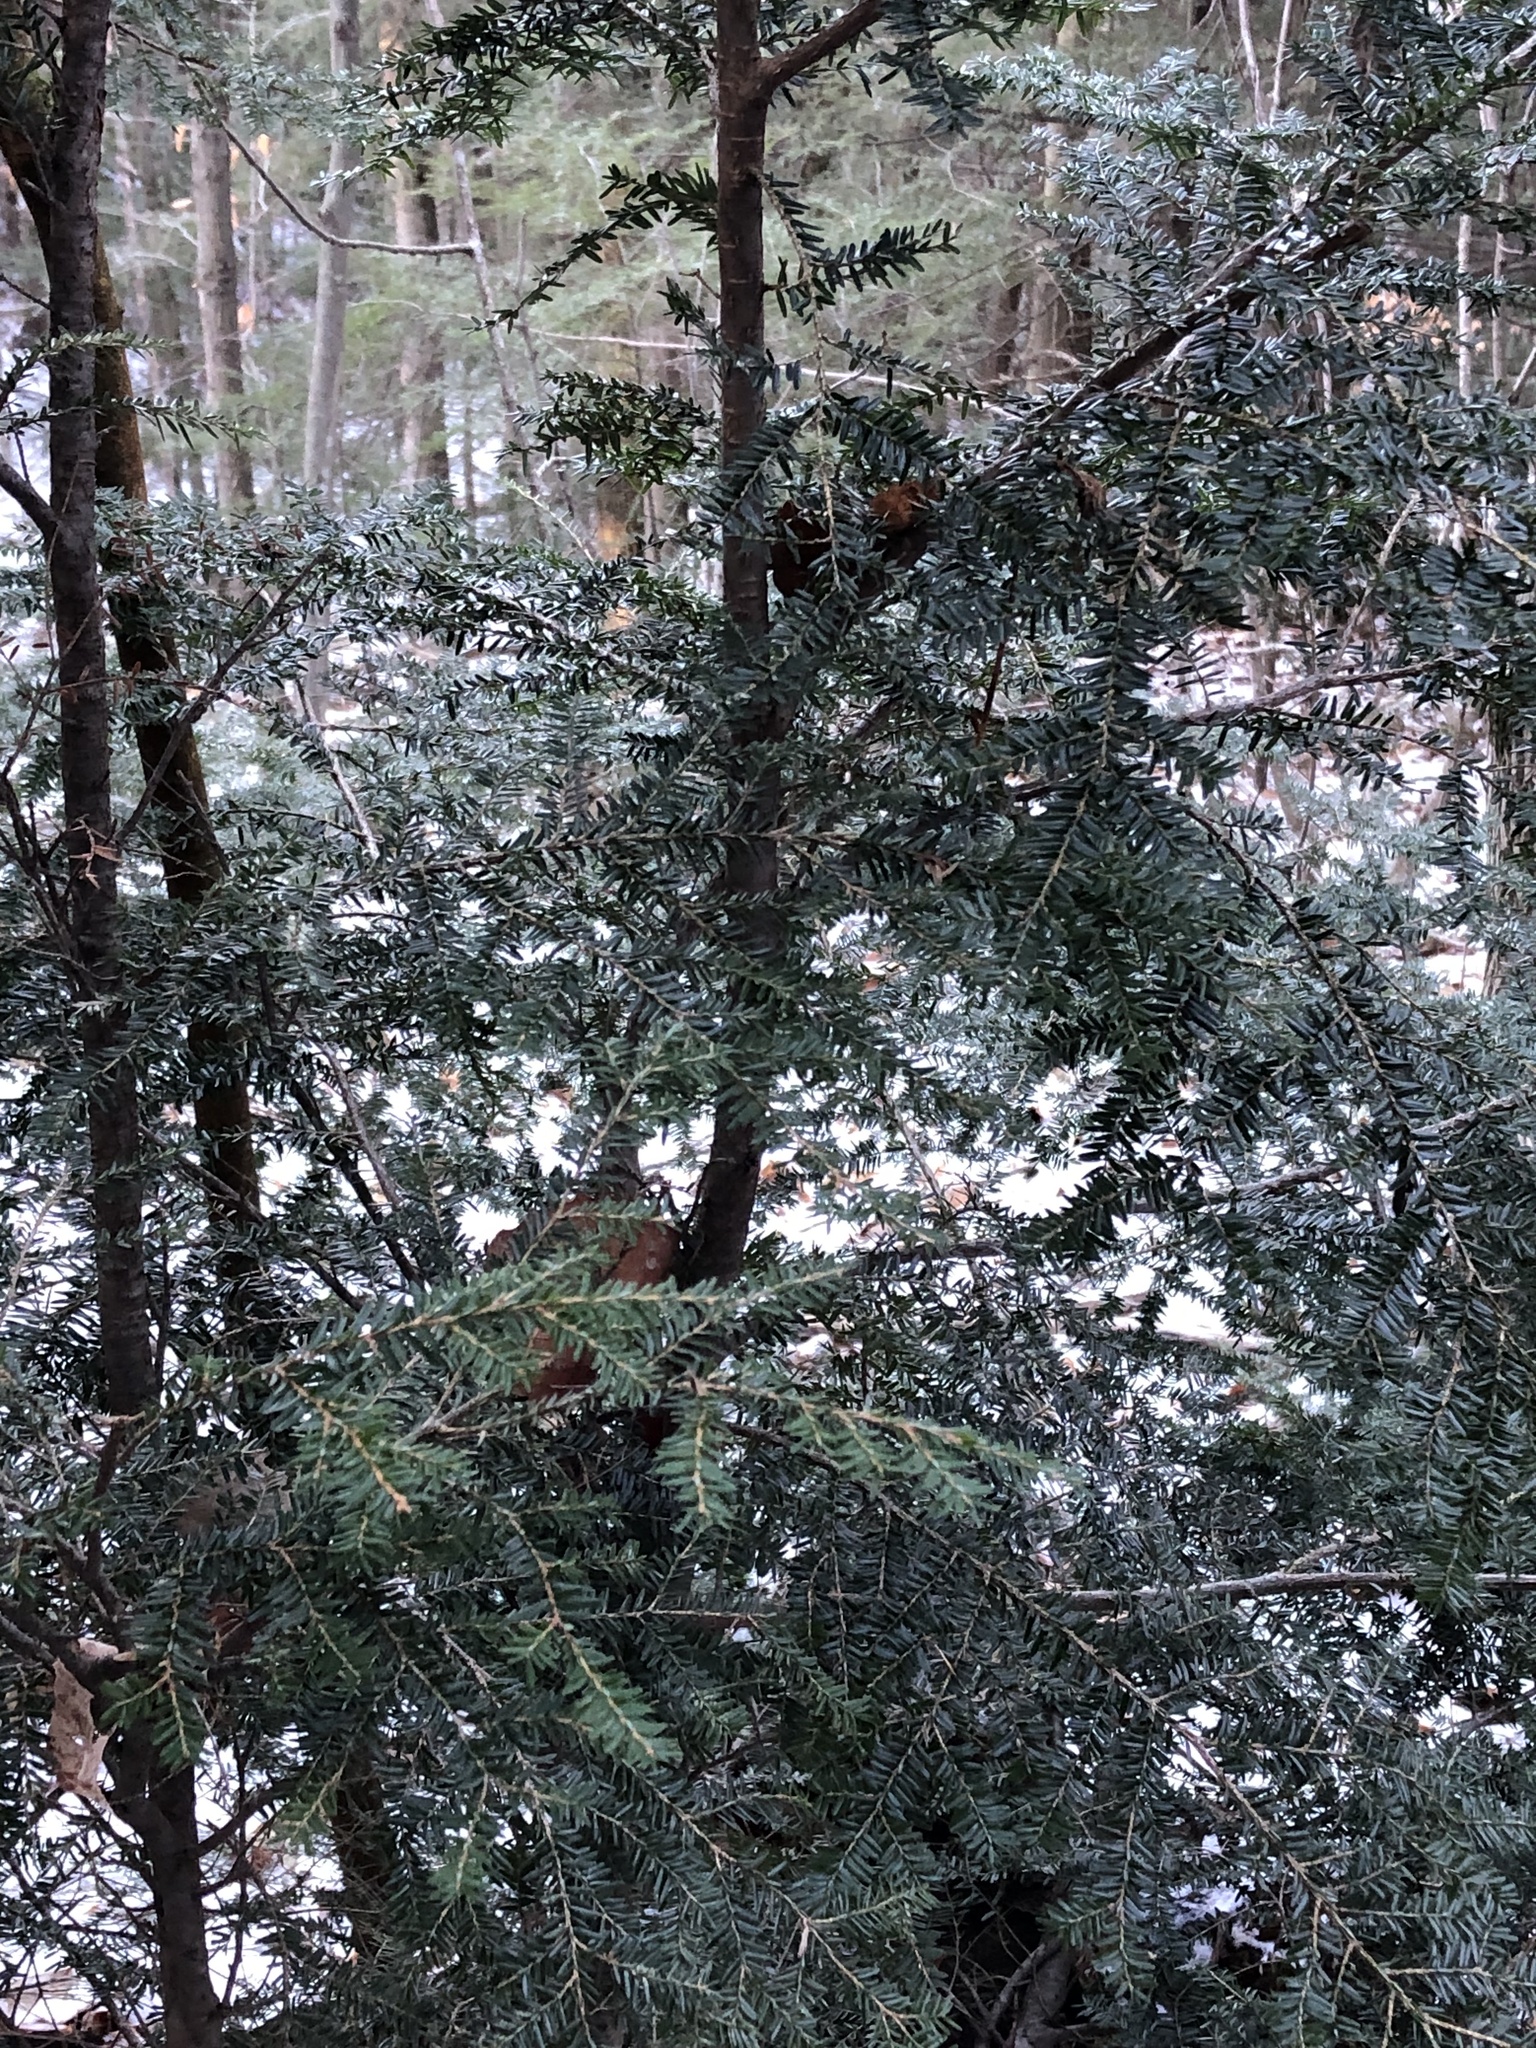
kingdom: Plantae
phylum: Tracheophyta
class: Pinopsida
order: Pinales
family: Pinaceae
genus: Tsuga
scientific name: Tsuga canadensis
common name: Eastern hemlock
